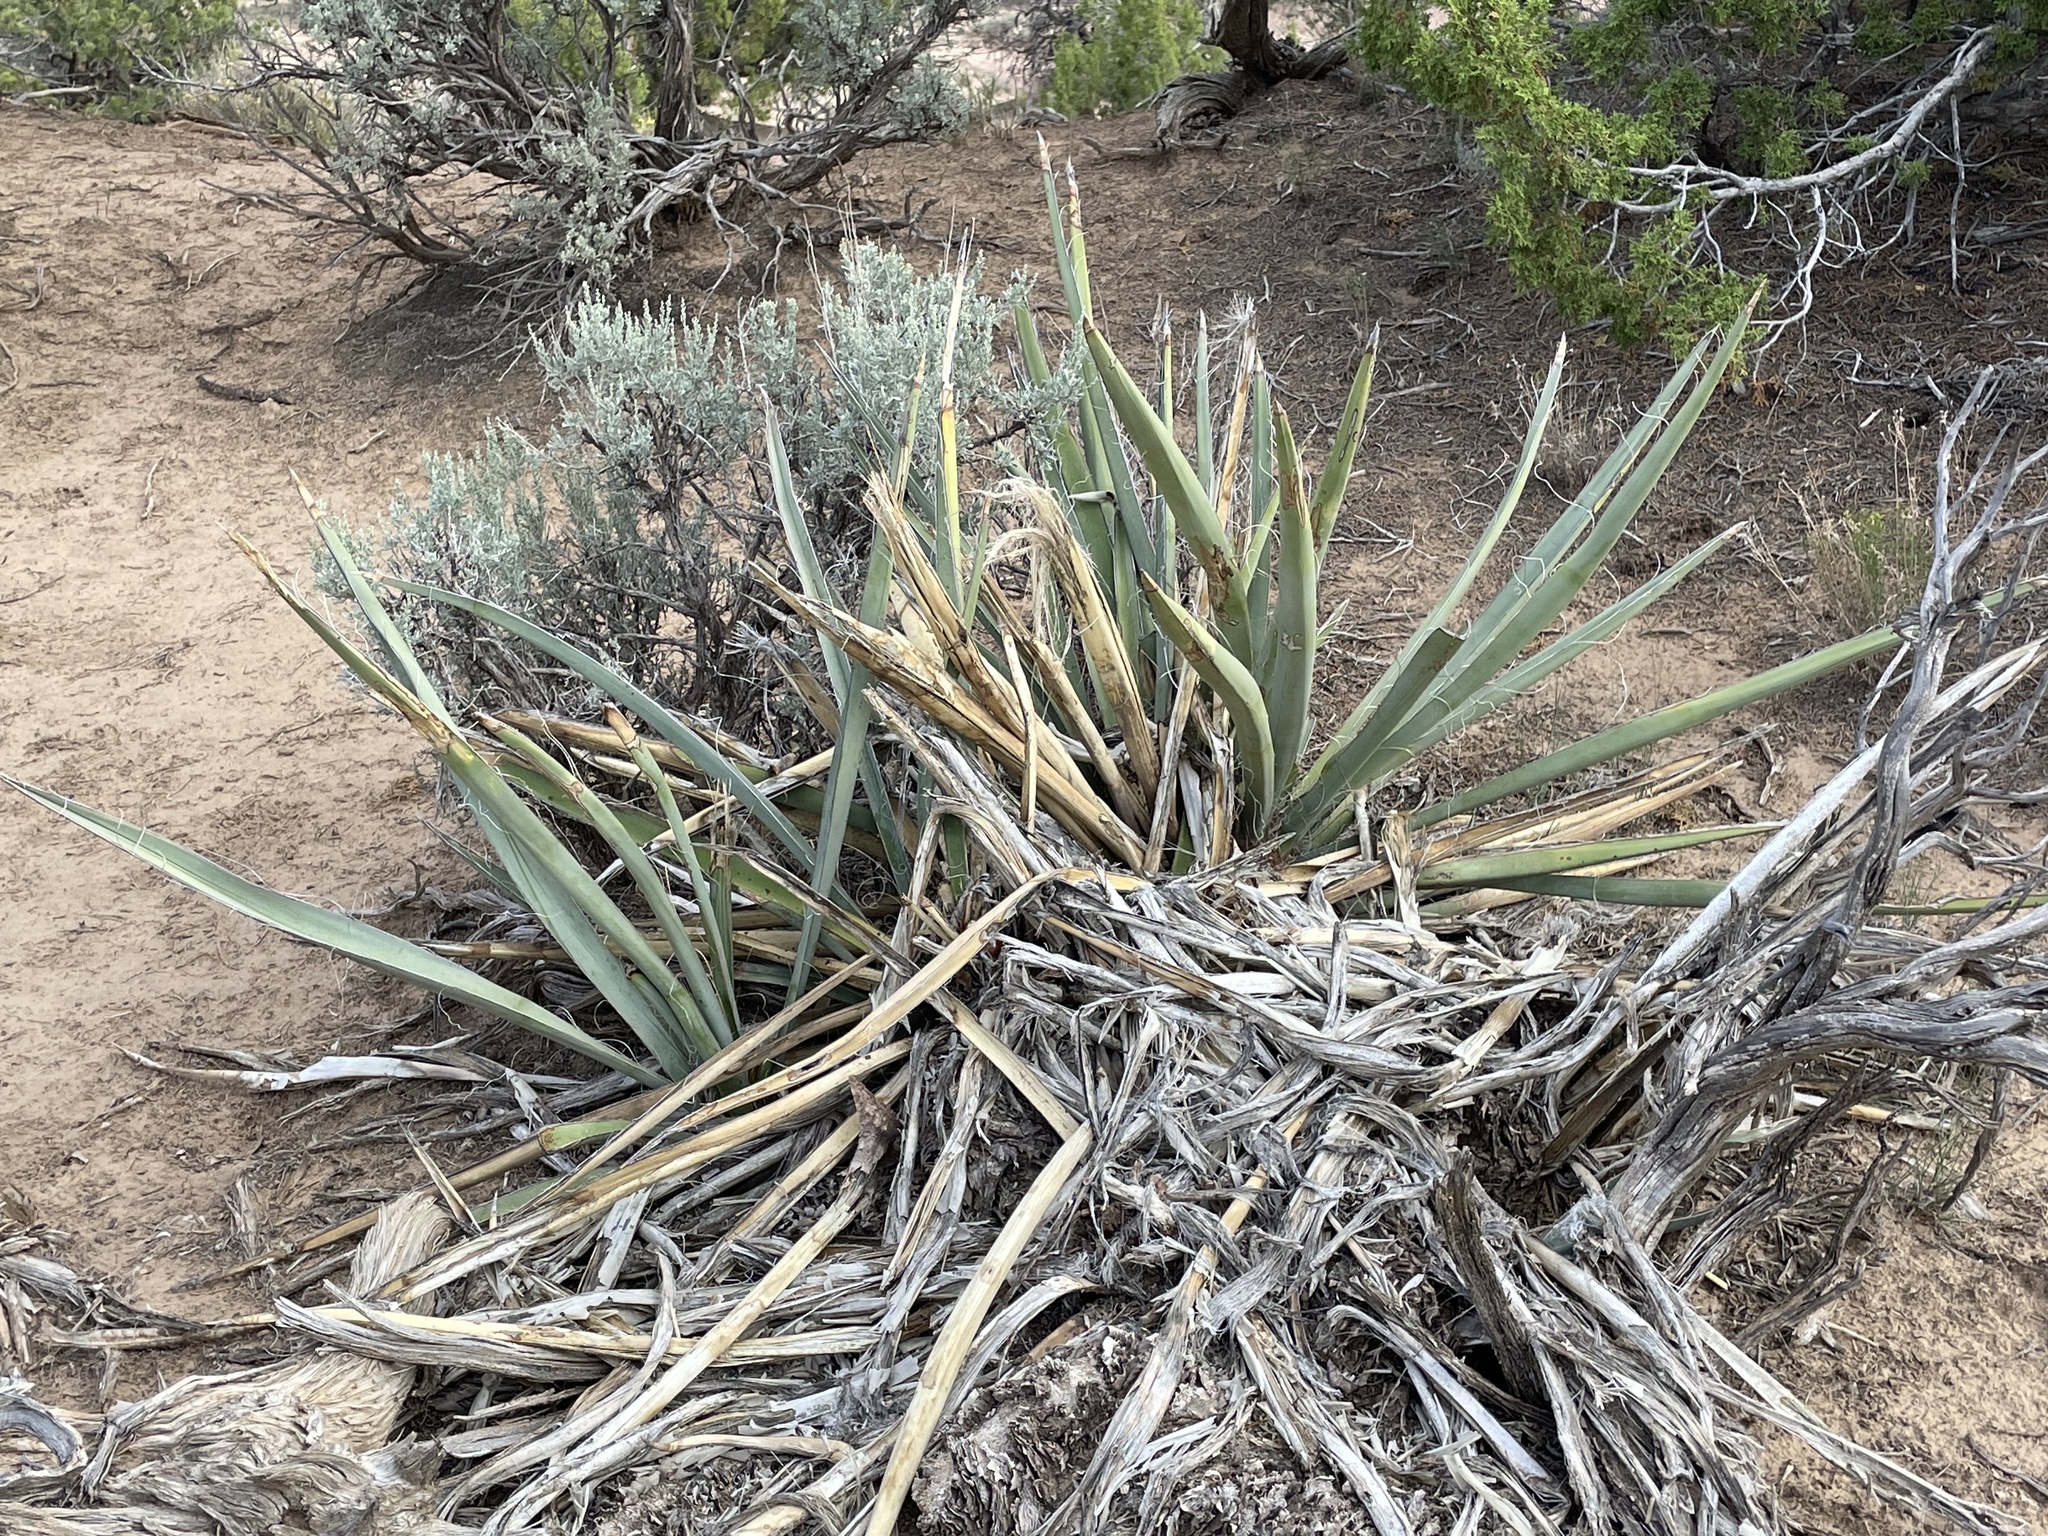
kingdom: Plantae
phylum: Tracheophyta
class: Liliopsida
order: Asparagales
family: Asparagaceae
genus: Yucca
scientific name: Yucca baccata
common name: Banana yucca
